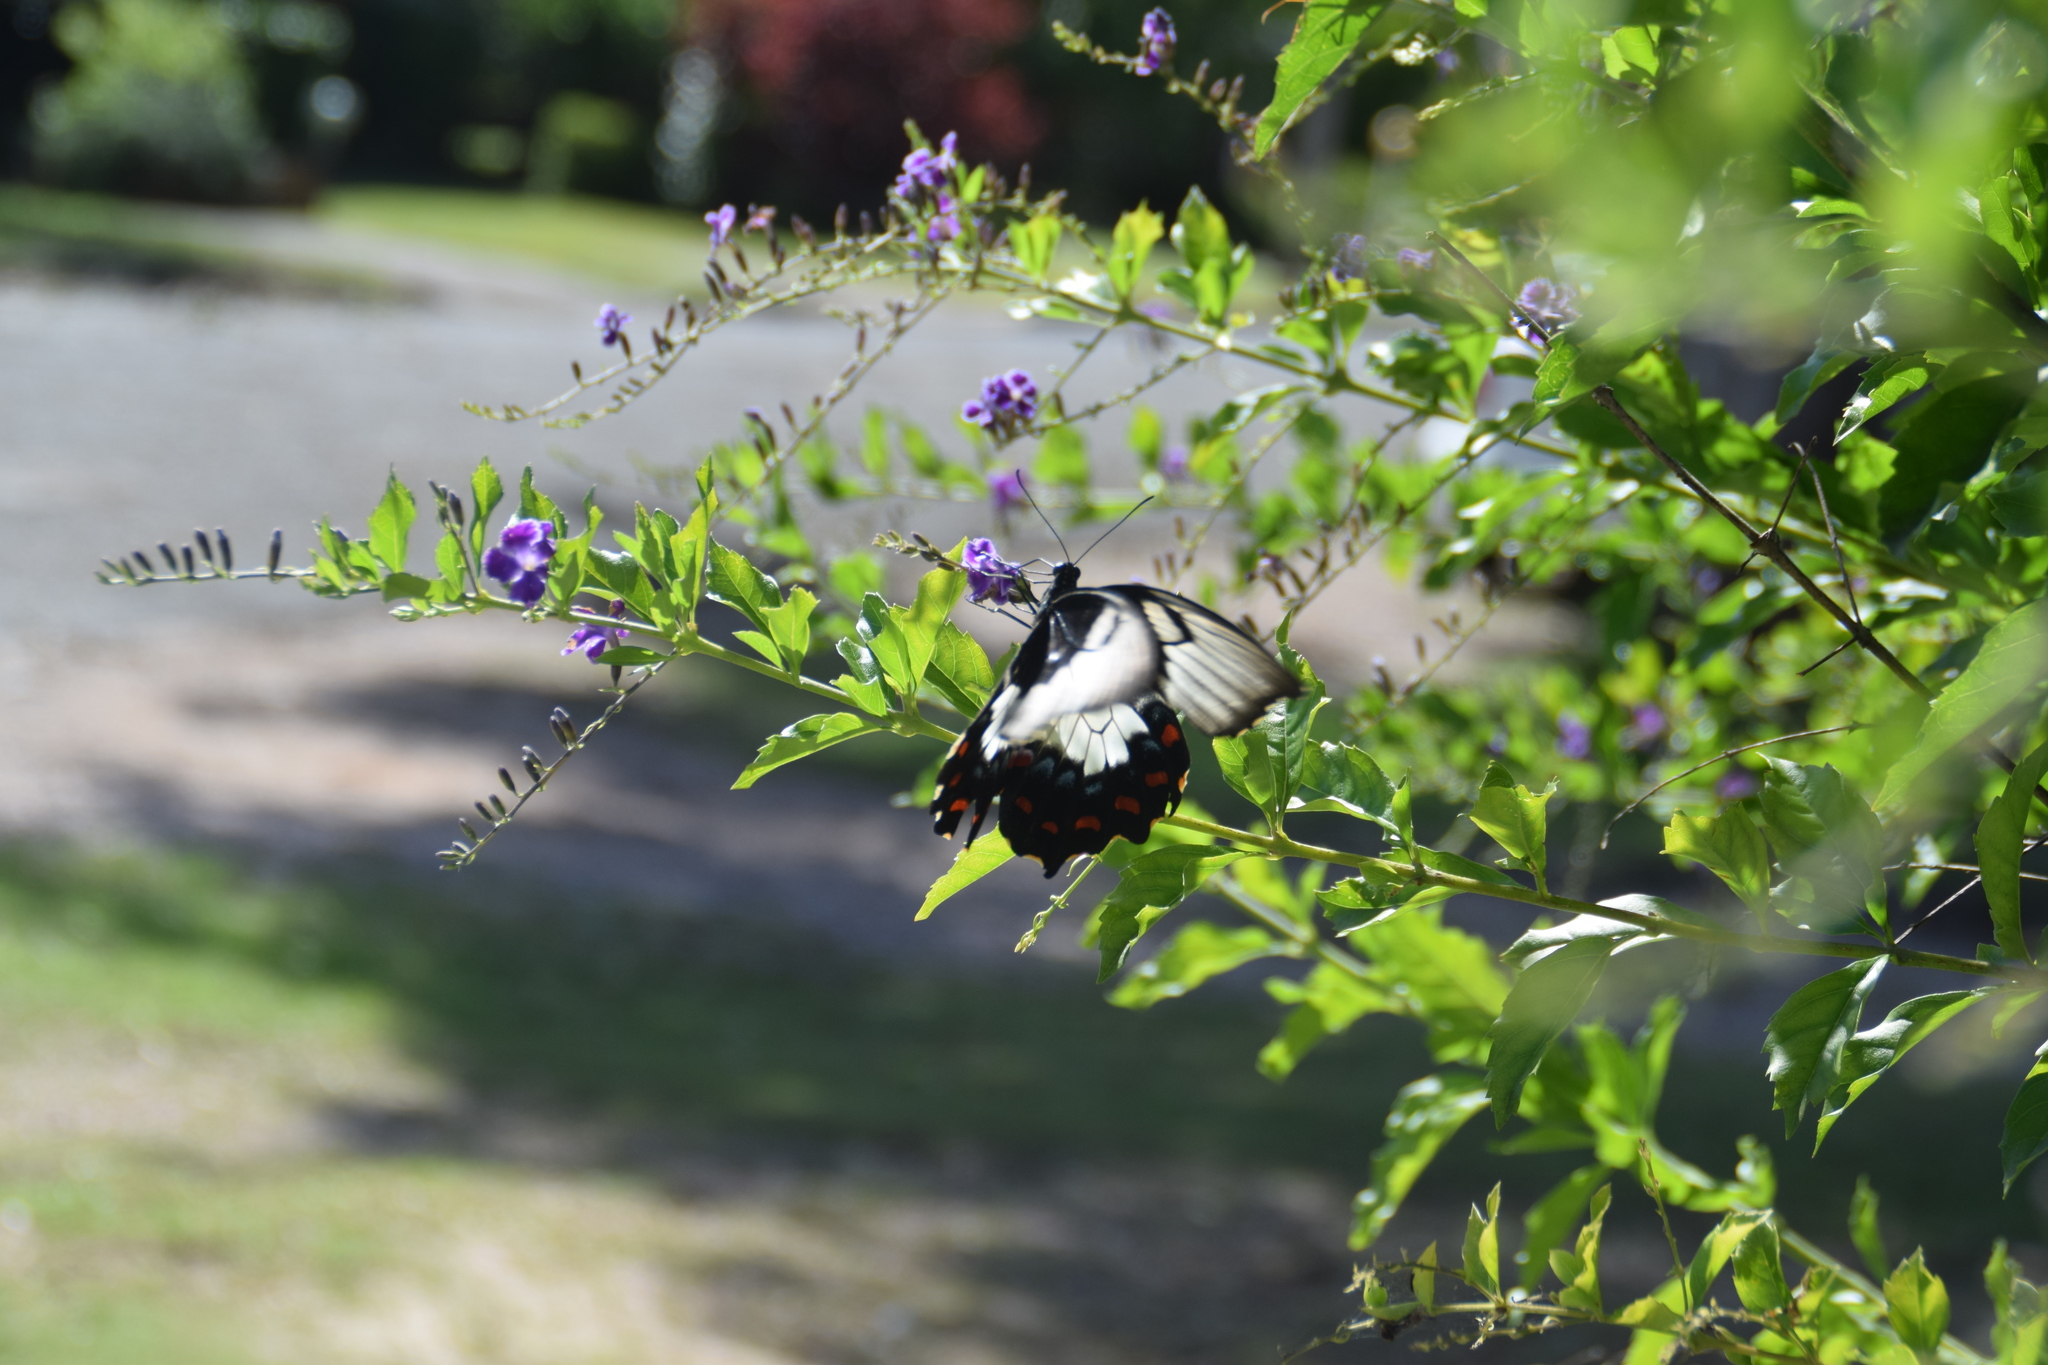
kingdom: Animalia
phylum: Arthropoda
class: Insecta
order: Lepidoptera
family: Papilionidae
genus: Papilio
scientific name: Papilio aegeus
